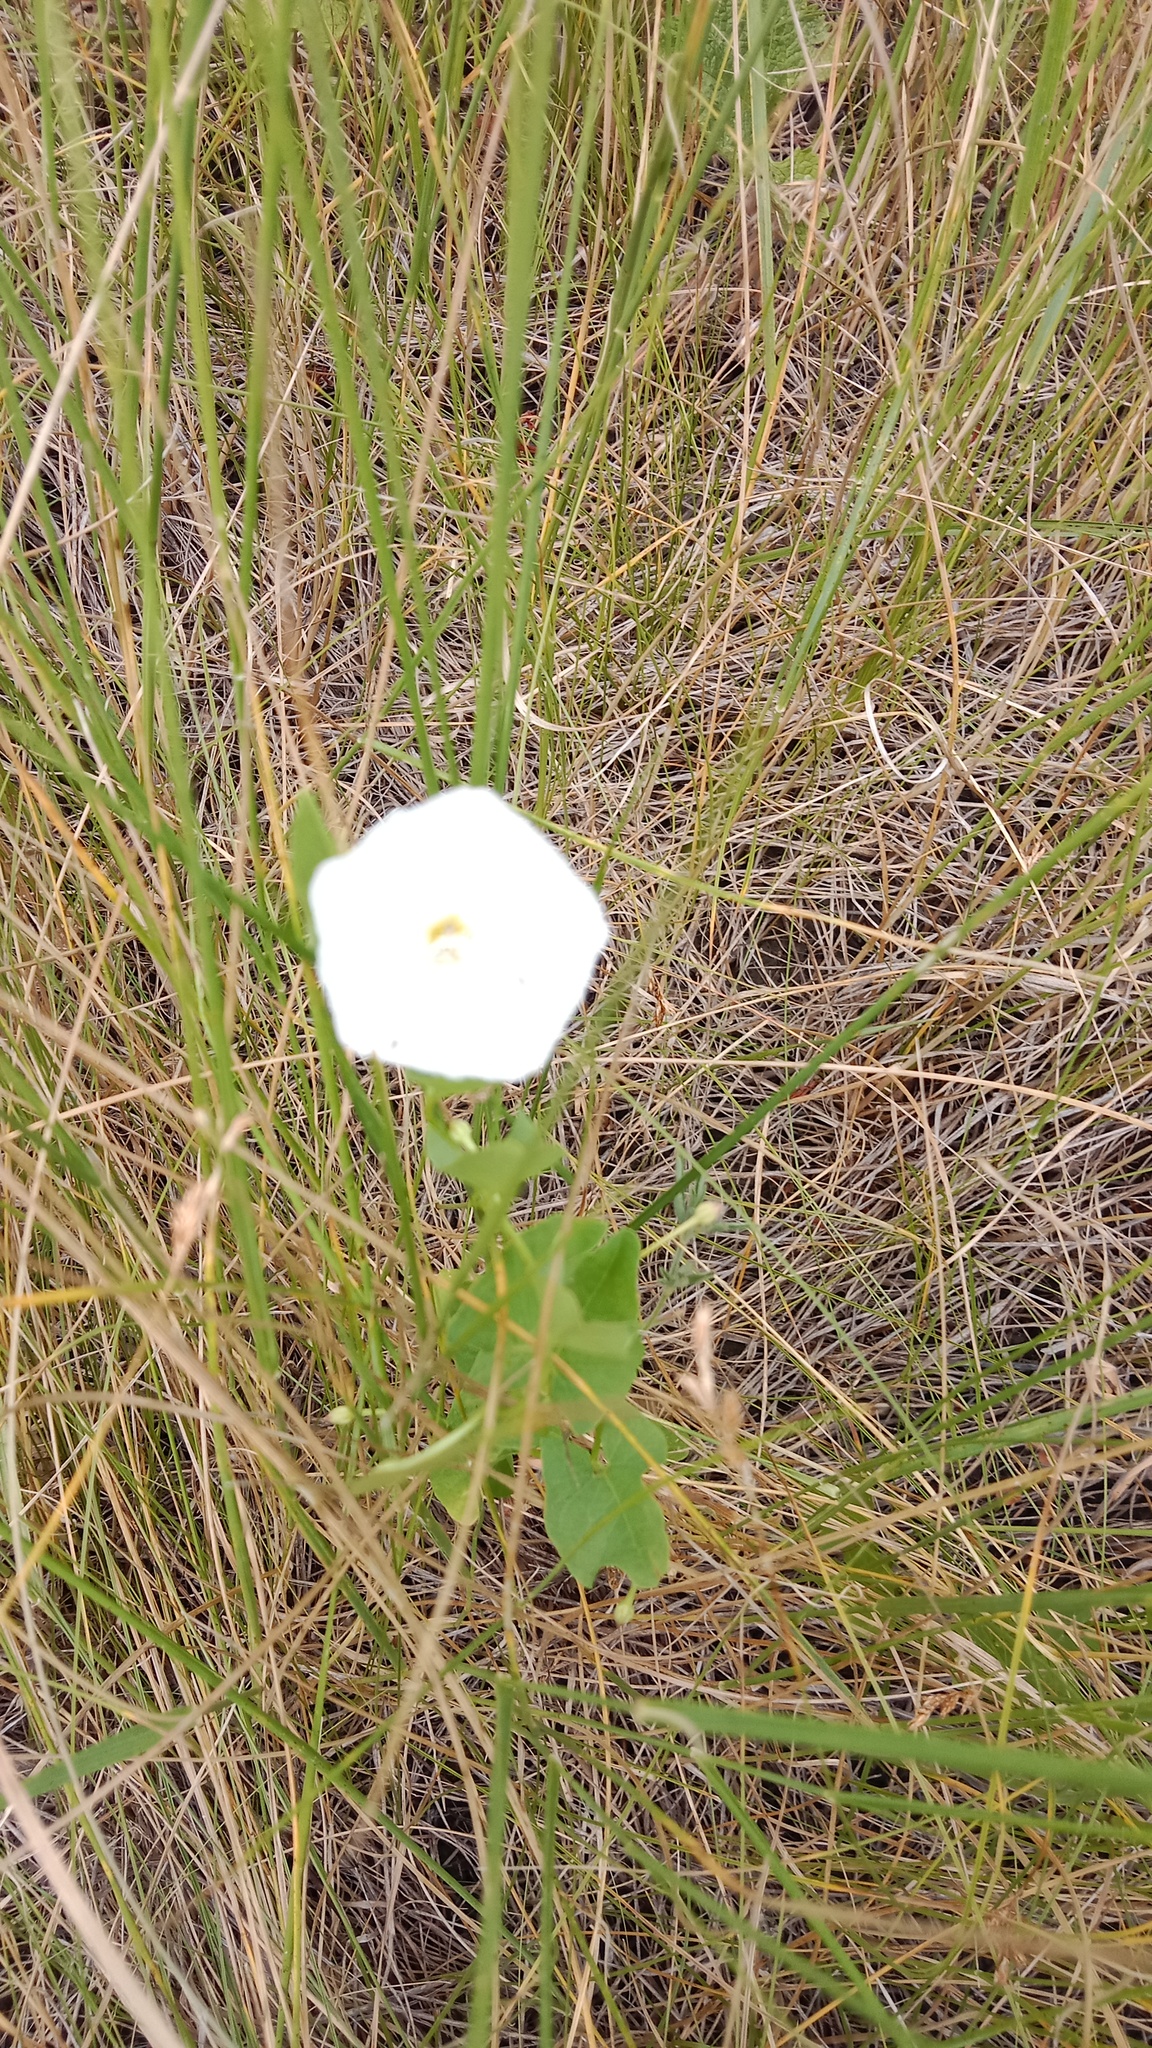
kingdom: Plantae
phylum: Tracheophyta
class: Magnoliopsida
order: Solanales
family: Convolvulaceae
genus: Convolvulus
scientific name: Convolvulus arvensis
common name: Field bindweed
